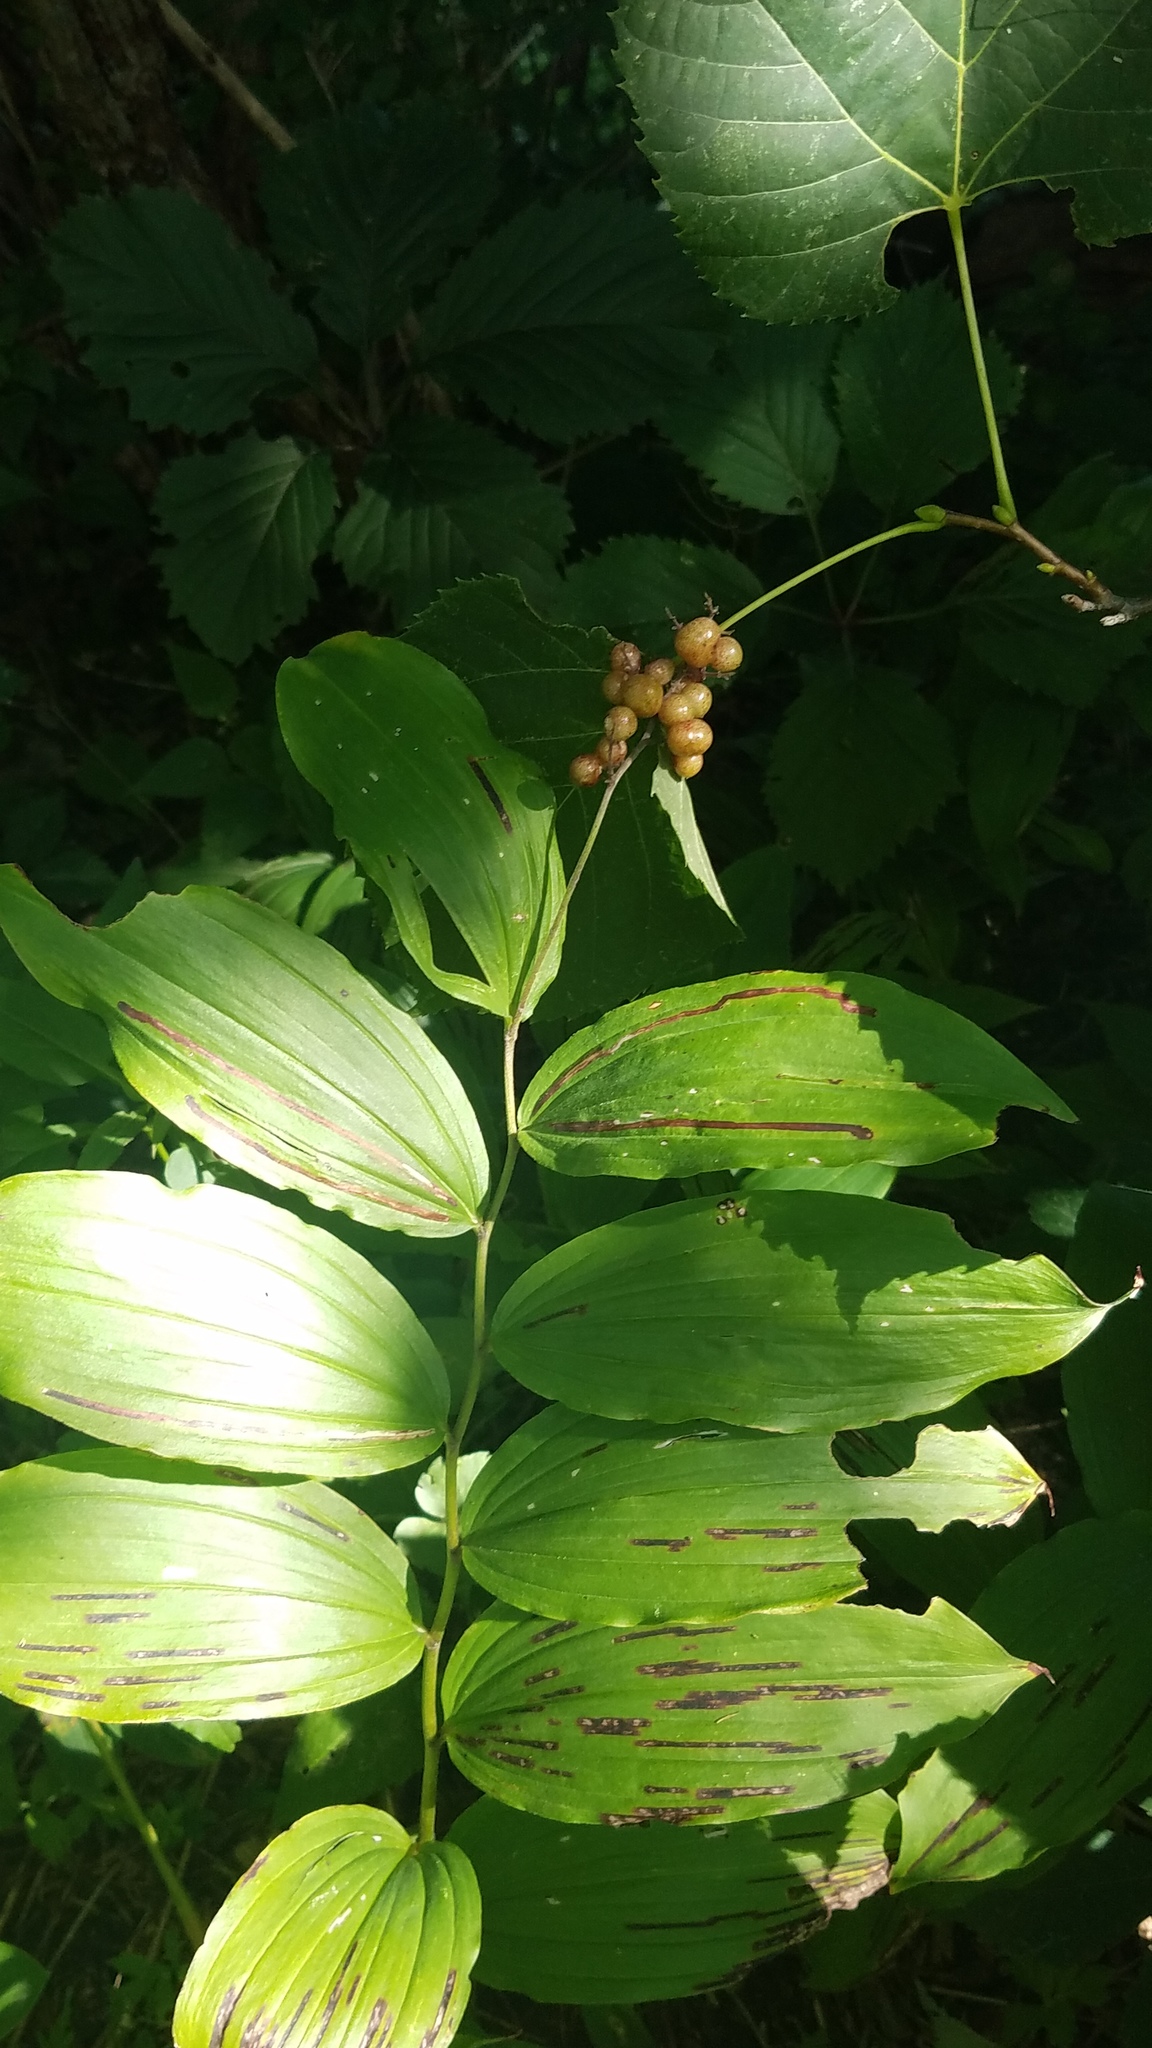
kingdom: Plantae
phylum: Tracheophyta
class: Liliopsida
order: Asparagales
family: Asparagaceae
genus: Maianthemum
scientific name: Maianthemum racemosum
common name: False spikenard
